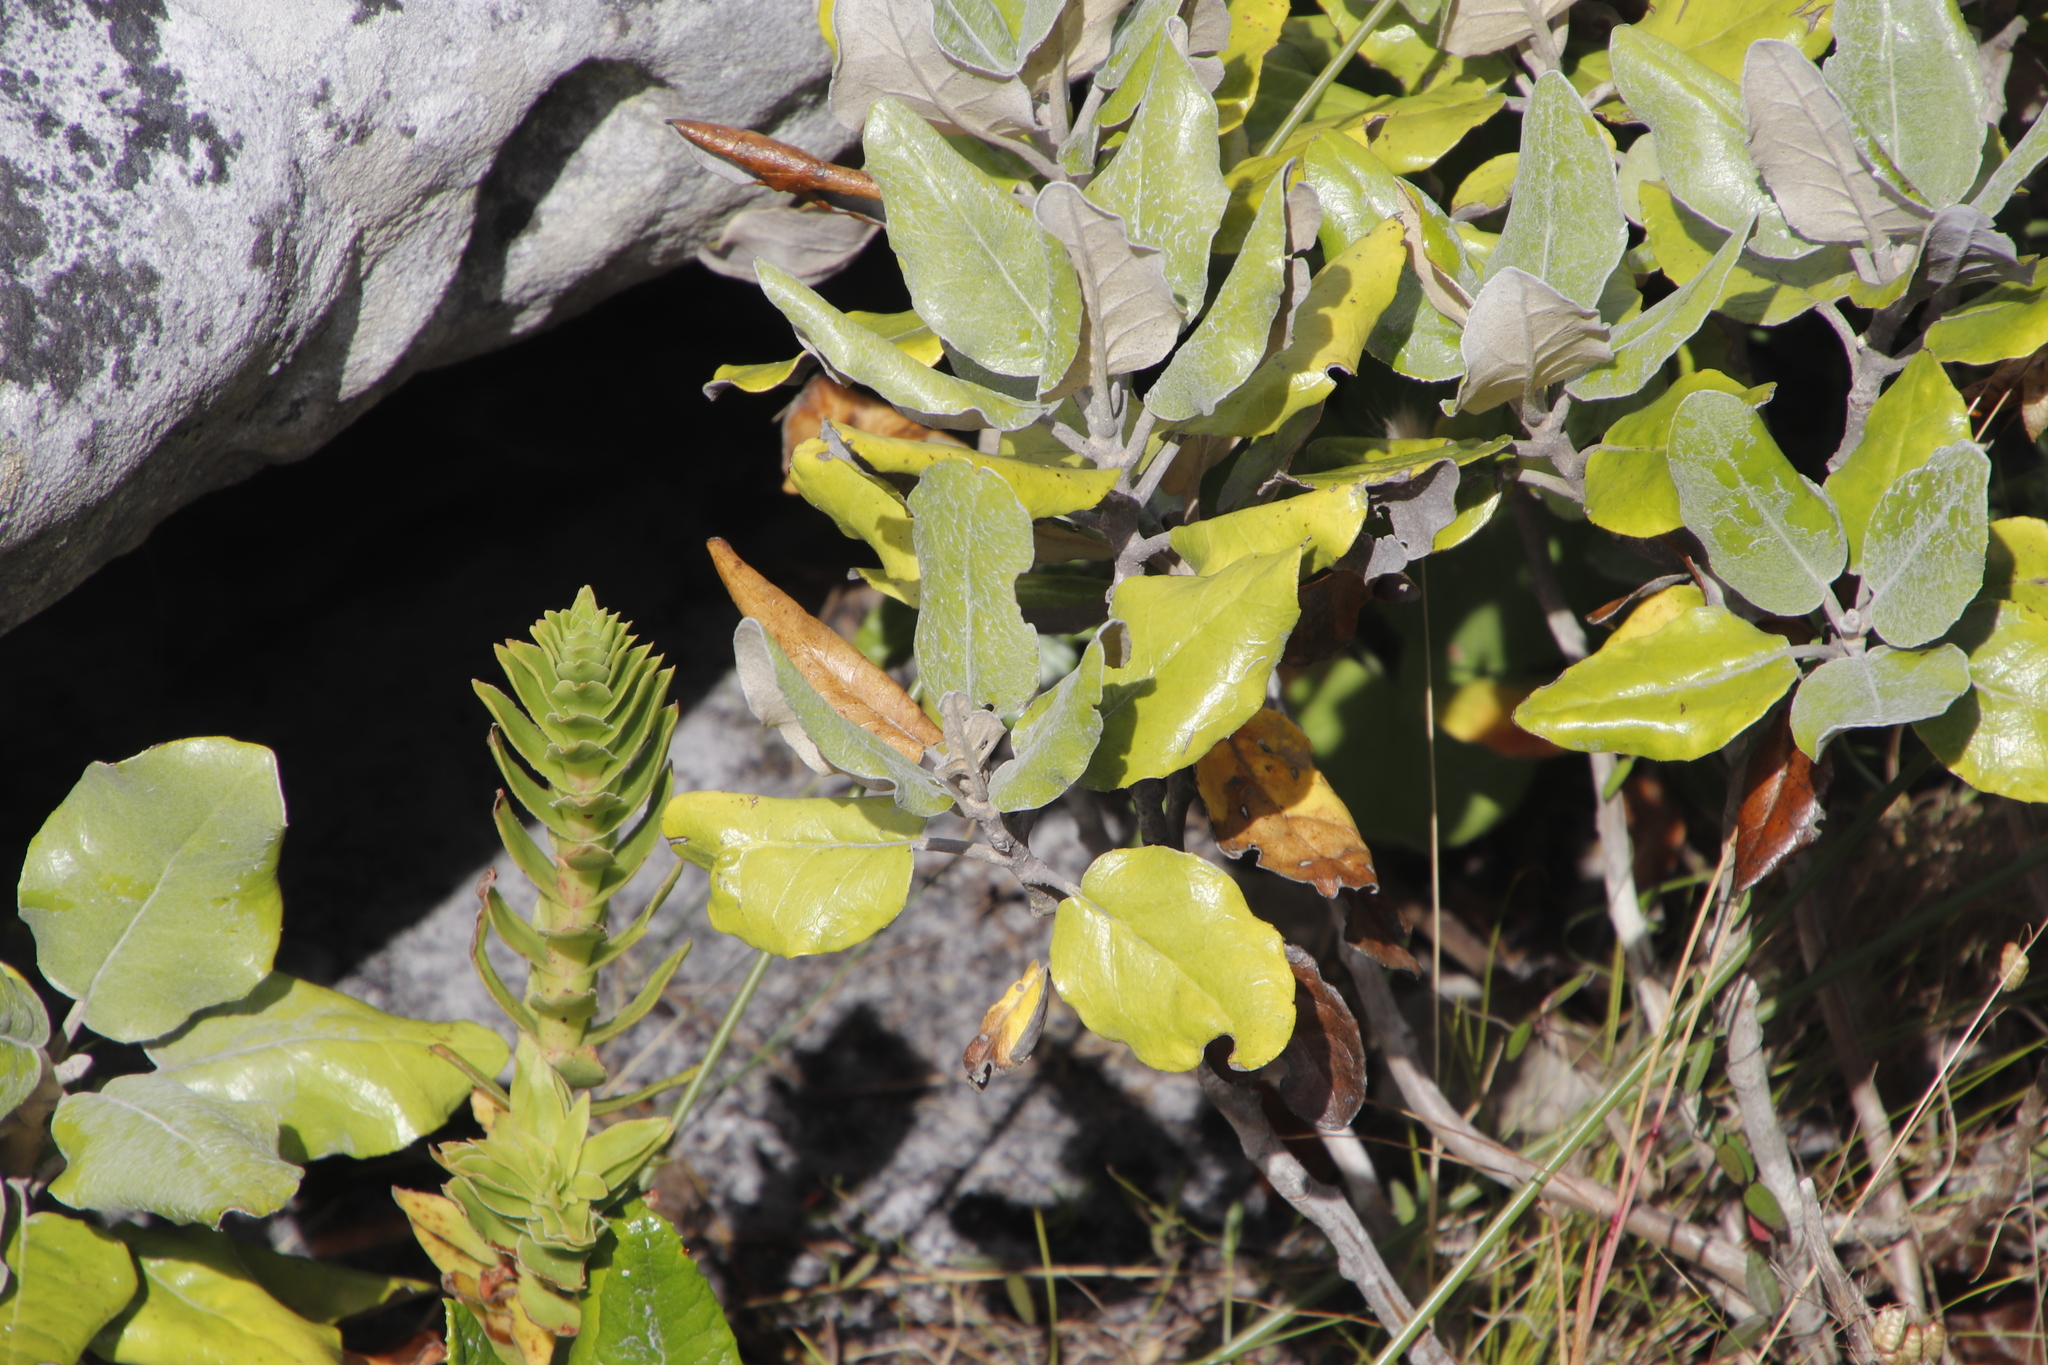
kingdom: Plantae
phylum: Tracheophyta
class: Magnoliopsida
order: Asterales
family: Asteraceae
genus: Capelio
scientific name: Capelio tabularis
